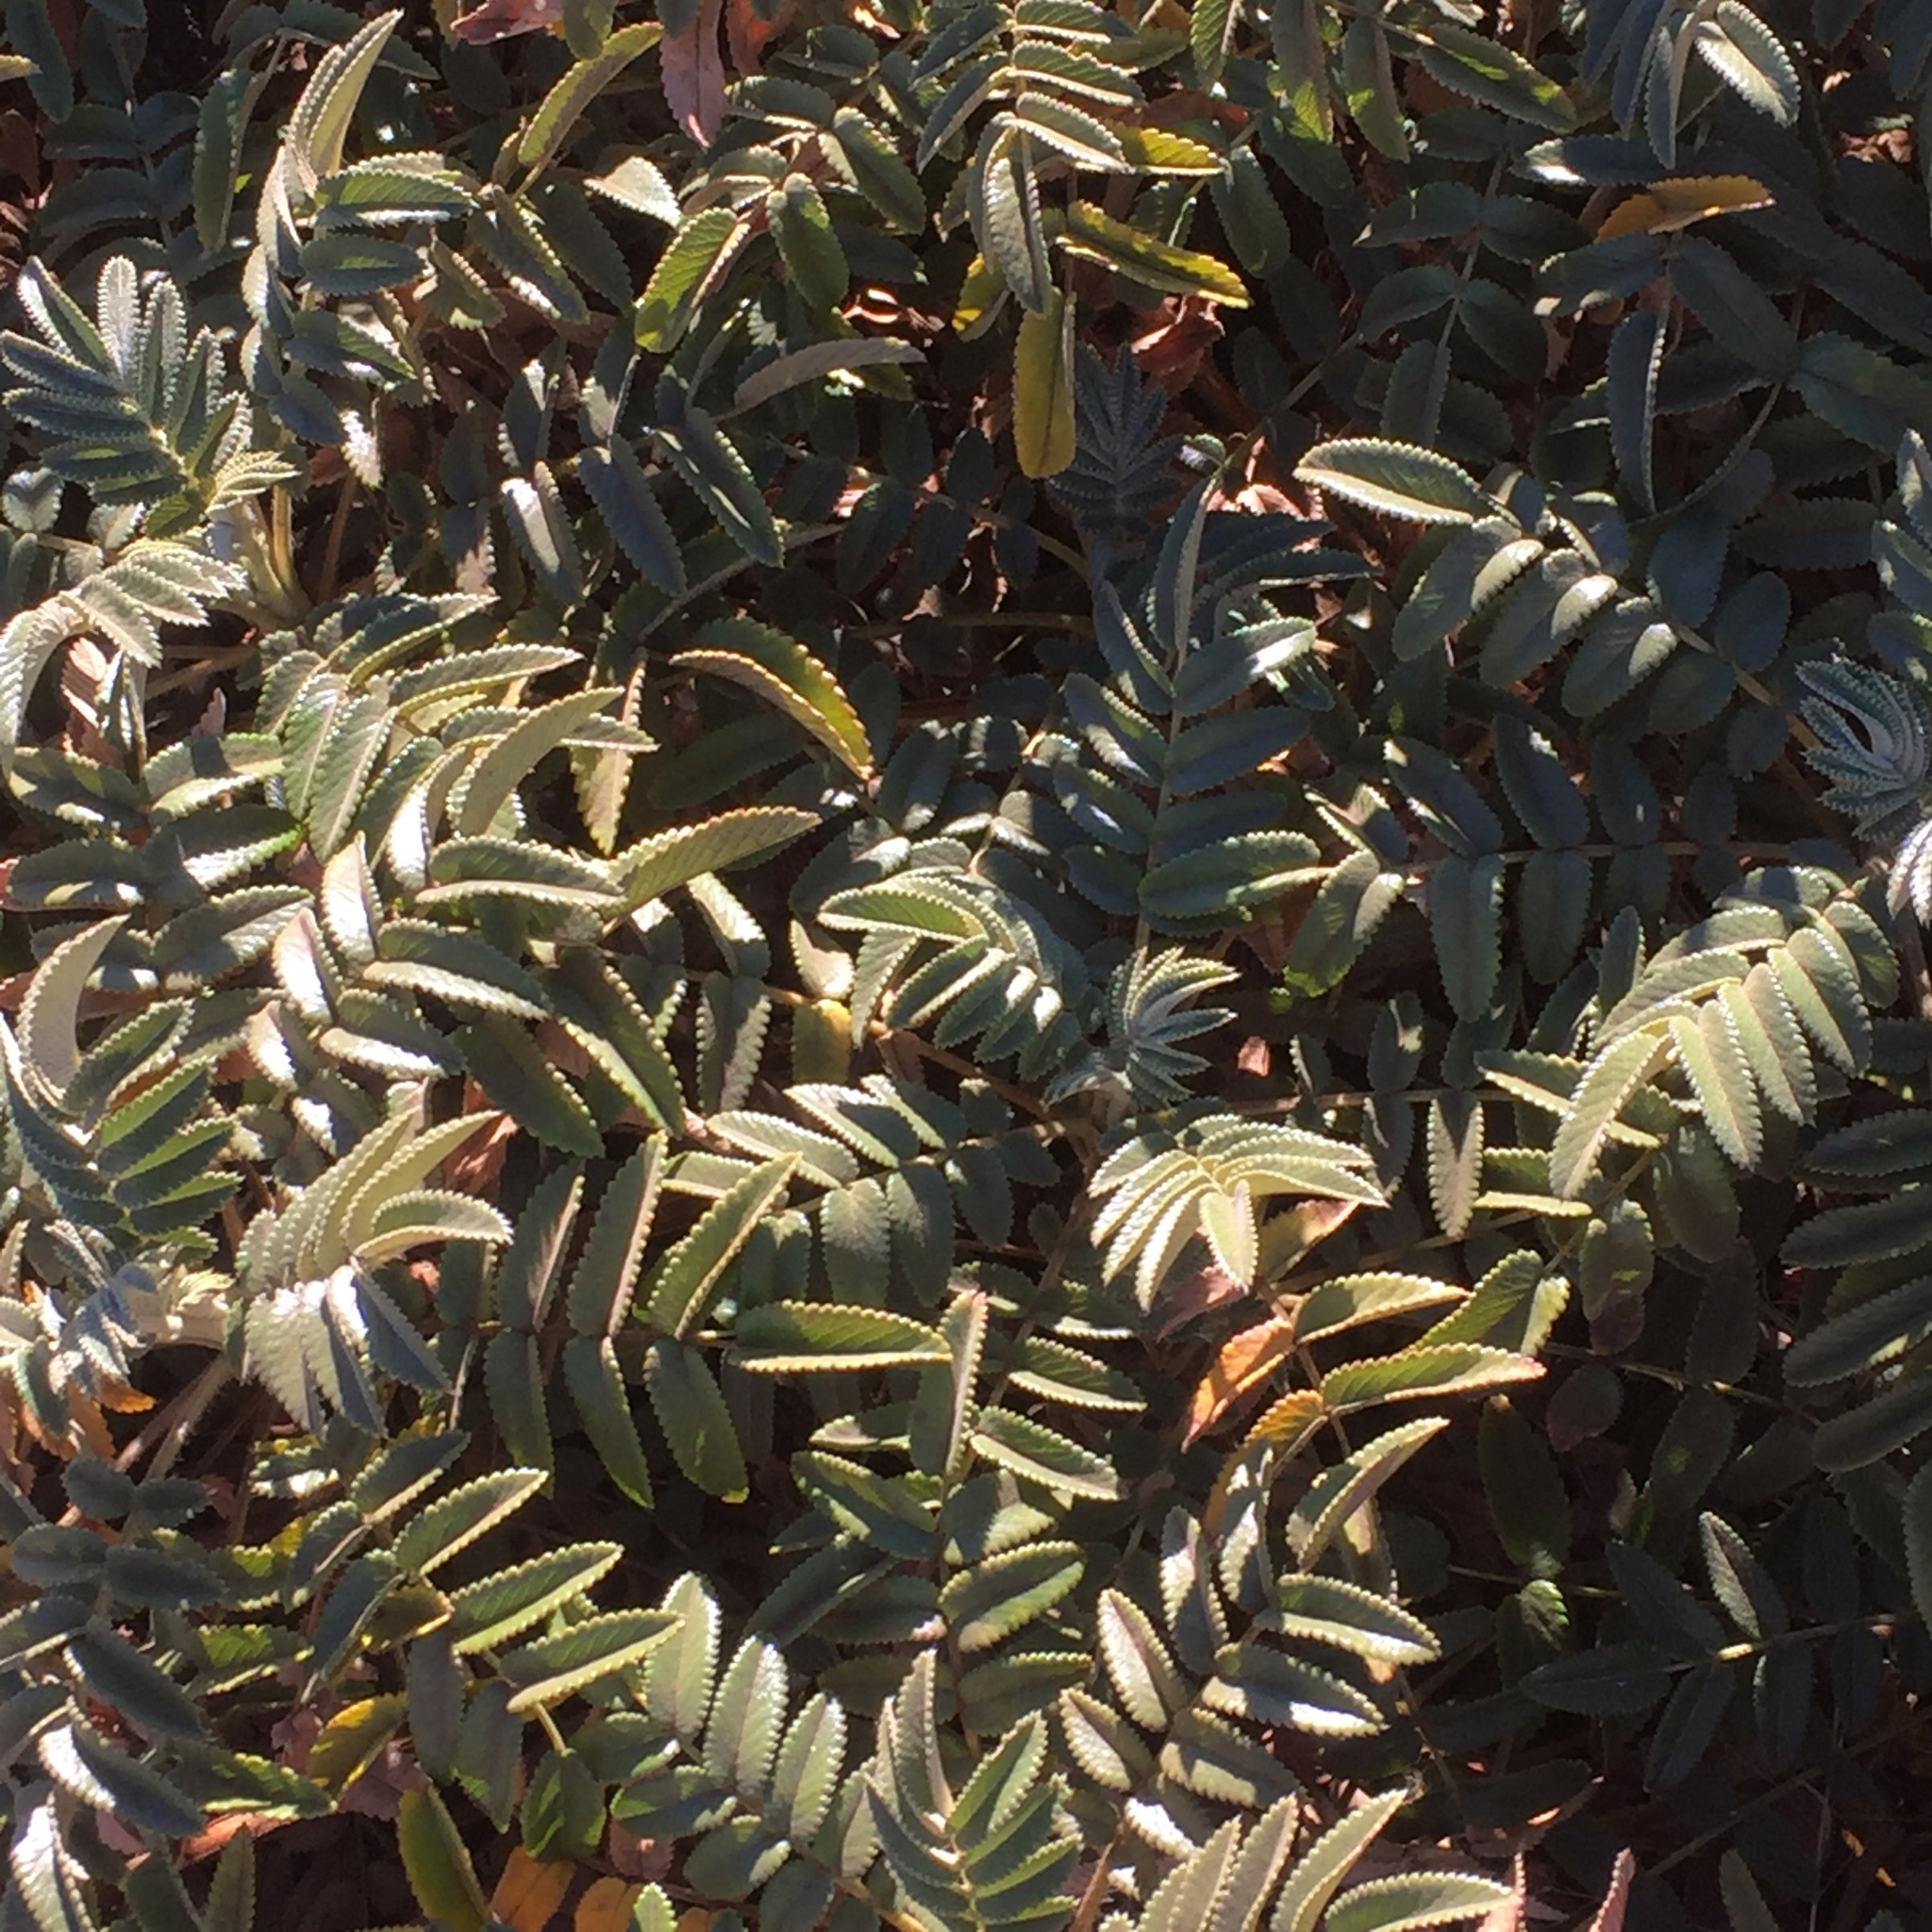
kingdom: Plantae
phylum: Tracheophyta
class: Magnoliopsida
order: Rosales
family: Rosaceae
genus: Bencomia
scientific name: Bencomia exstipulata
